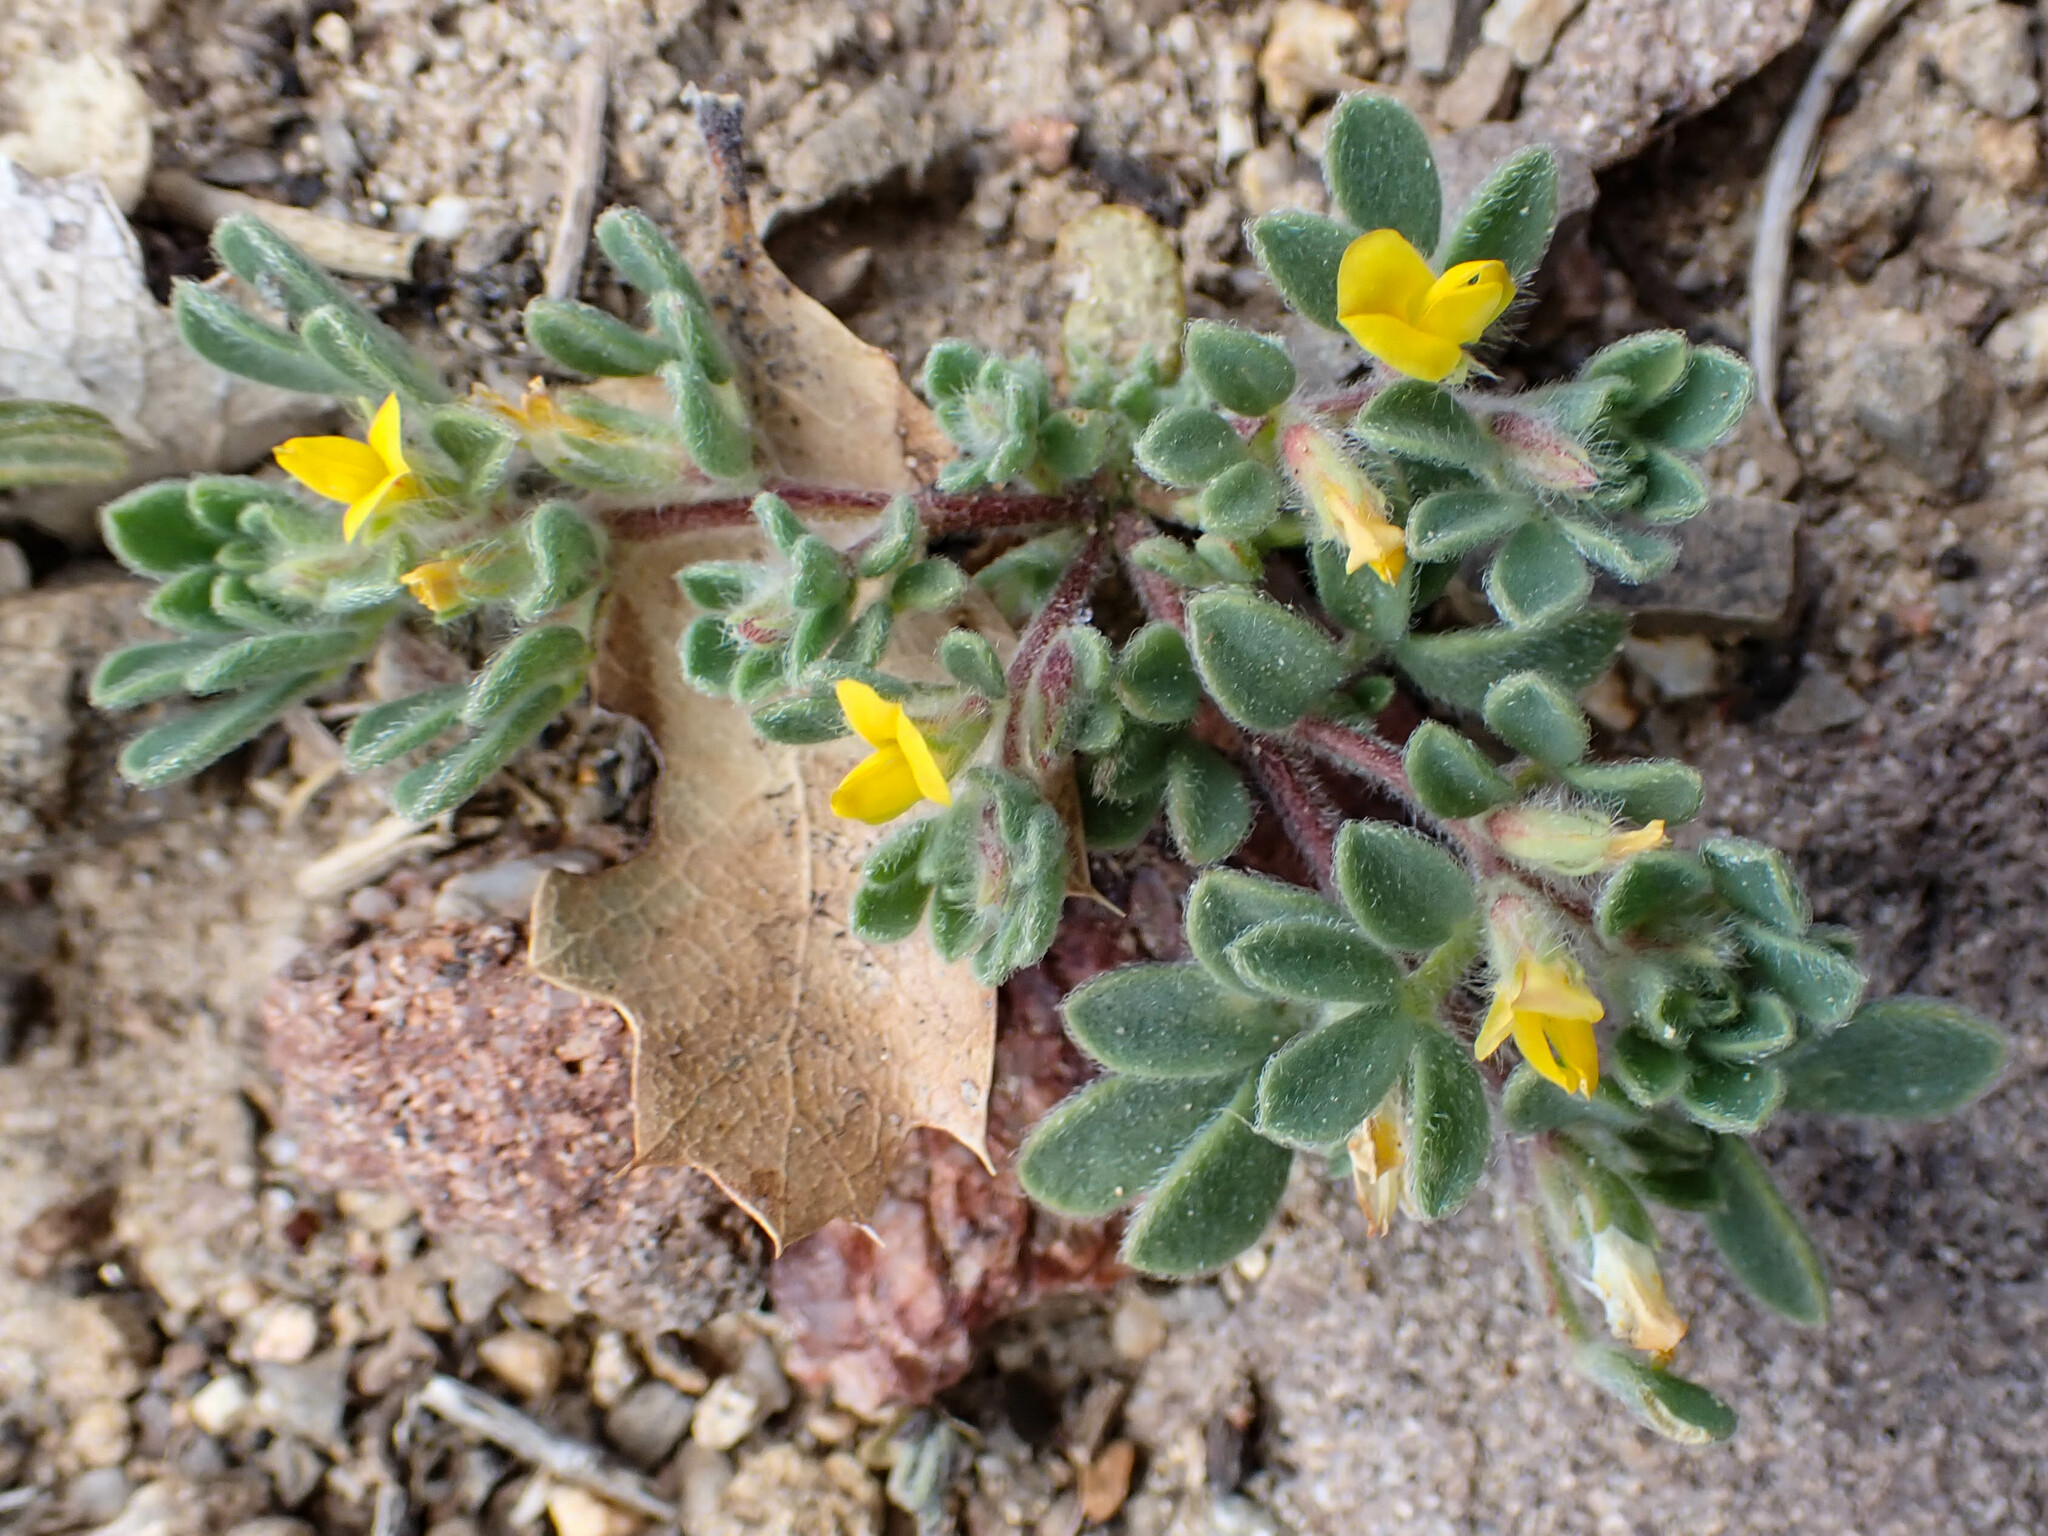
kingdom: Plantae
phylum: Tracheophyta
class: Magnoliopsida
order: Fabales
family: Fabaceae
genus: Acmispon
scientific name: Acmispon brachycarpus
